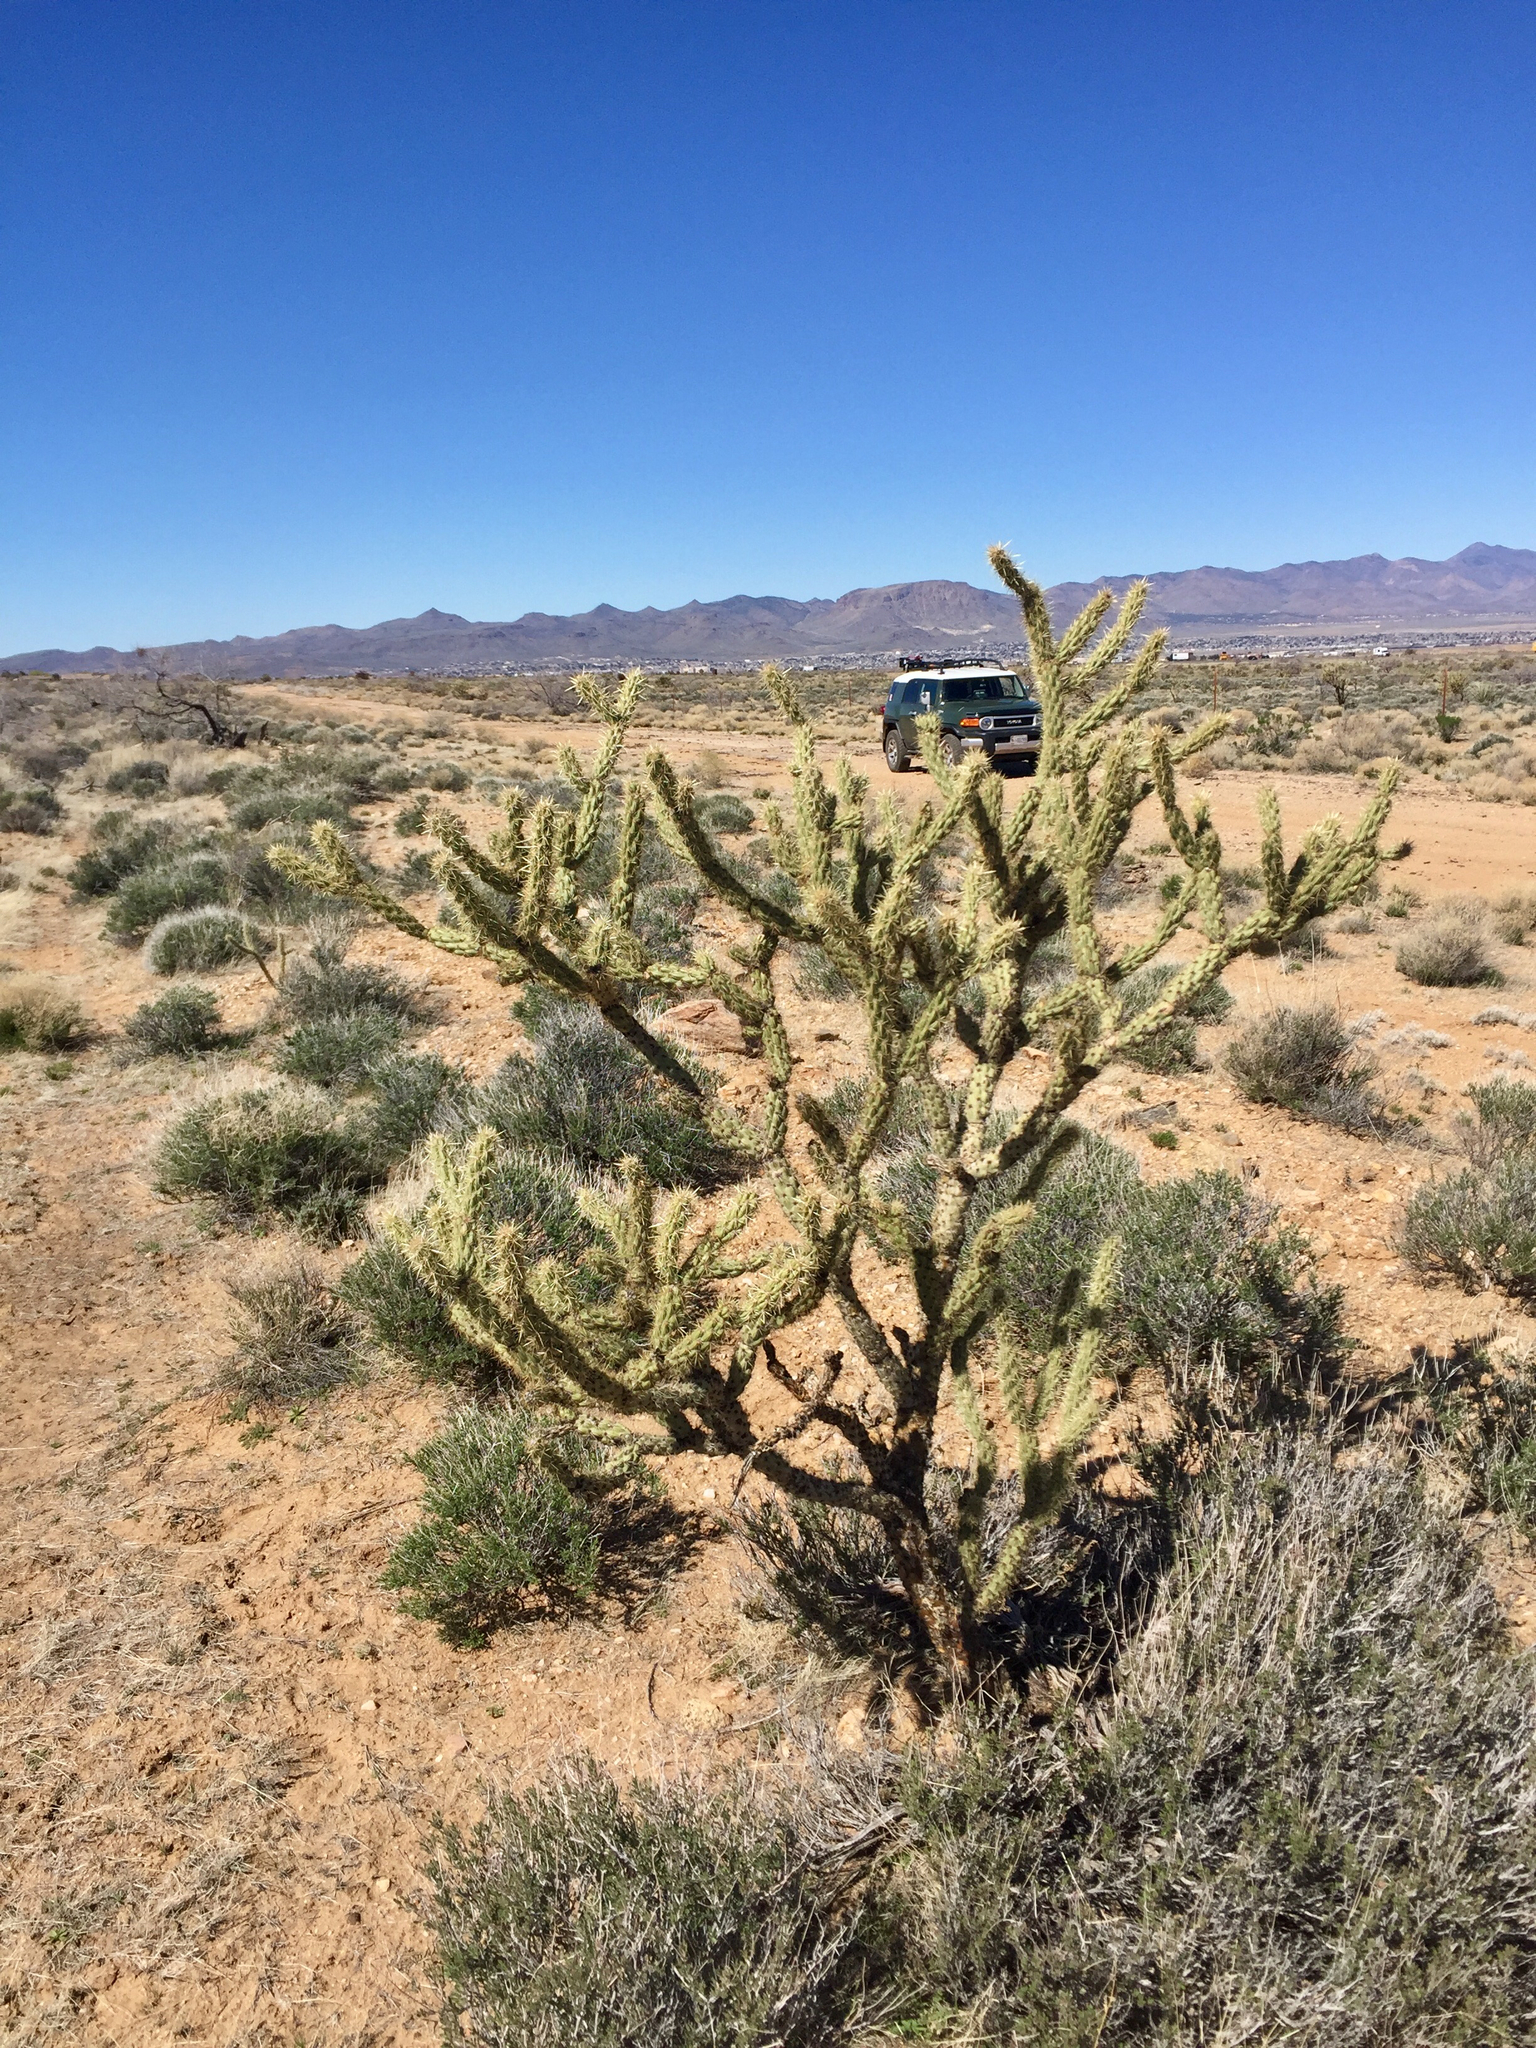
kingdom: Plantae
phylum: Tracheophyta
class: Magnoliopsida
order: Caryophyllales
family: Cactaceae
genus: Cylindropuntia
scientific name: Cylindropuntia acanthocarpa
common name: Buckhorn cholla
